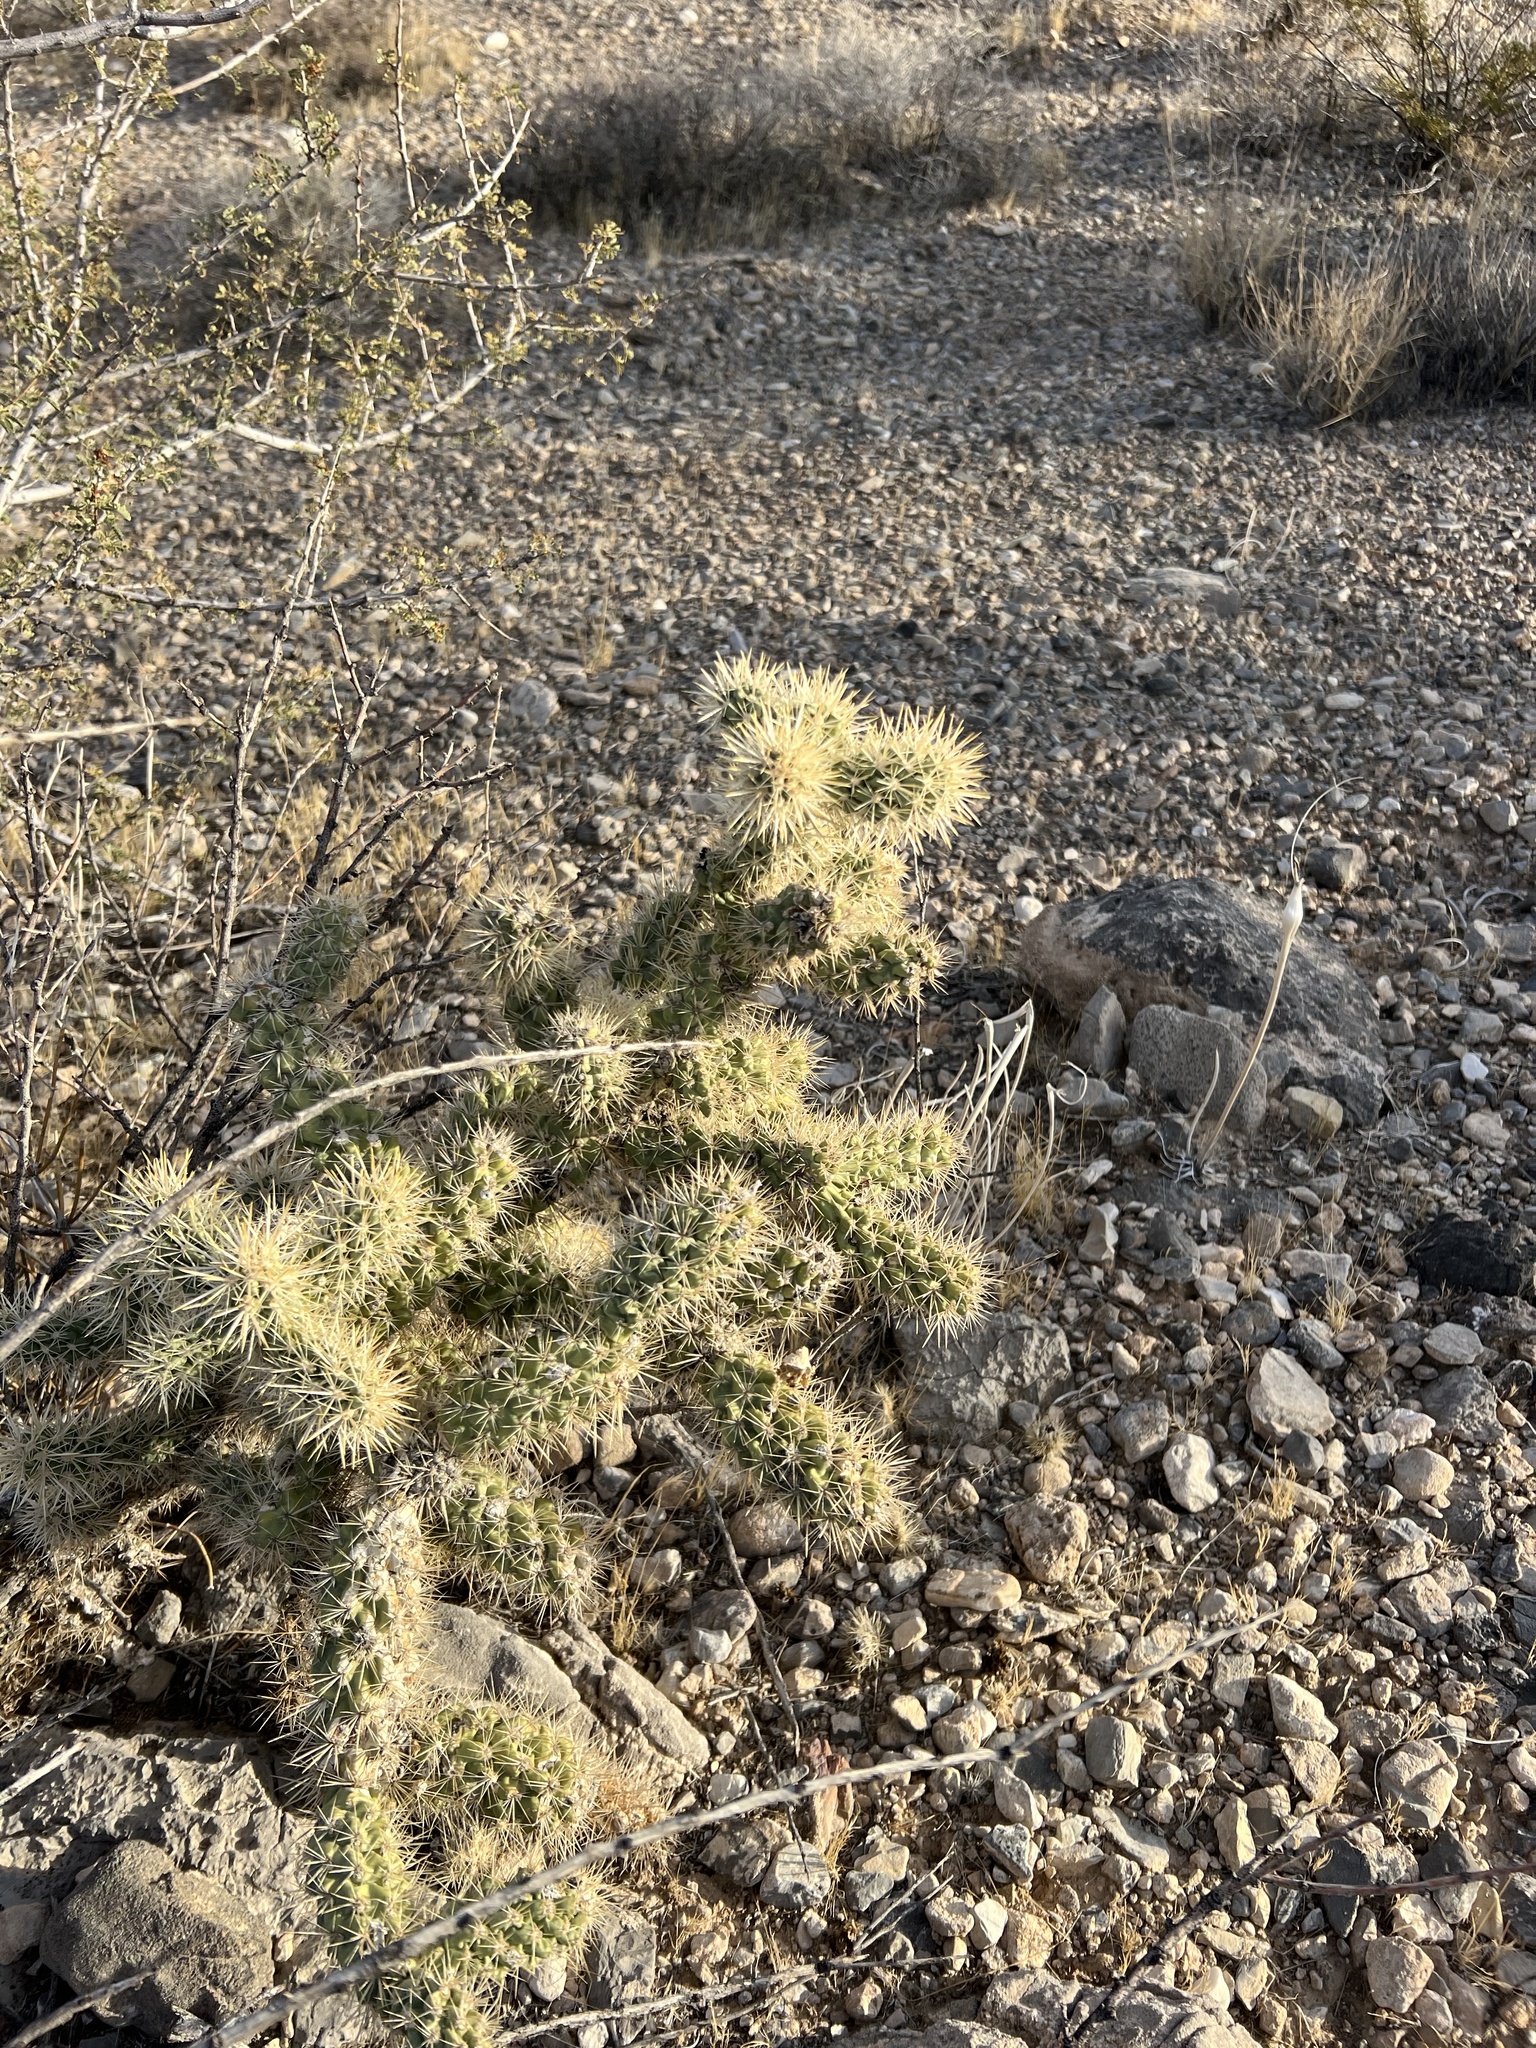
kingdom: Plantae
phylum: Tracheophyta
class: Magnoliopsida
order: Caryophyllales
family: Cactaceae
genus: Cylindropuntia
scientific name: Cylindropuntia echinocarpa
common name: Ground cholla
